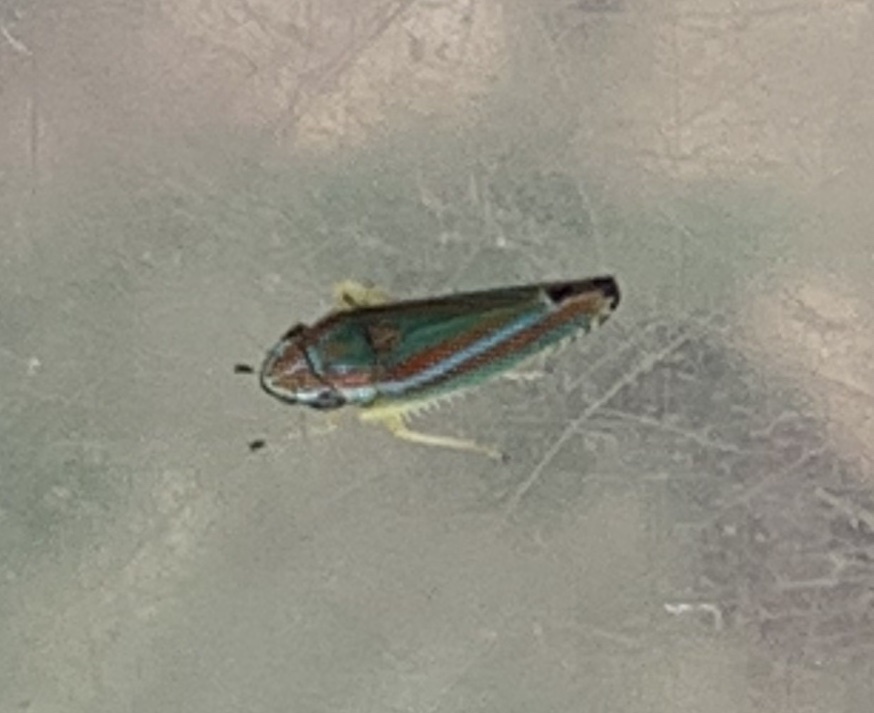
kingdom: Animalia
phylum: Arthropoda
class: Insecta
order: Hemiptera
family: Cicadellidae
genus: Graphocephala
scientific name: Graphocephala versuta
